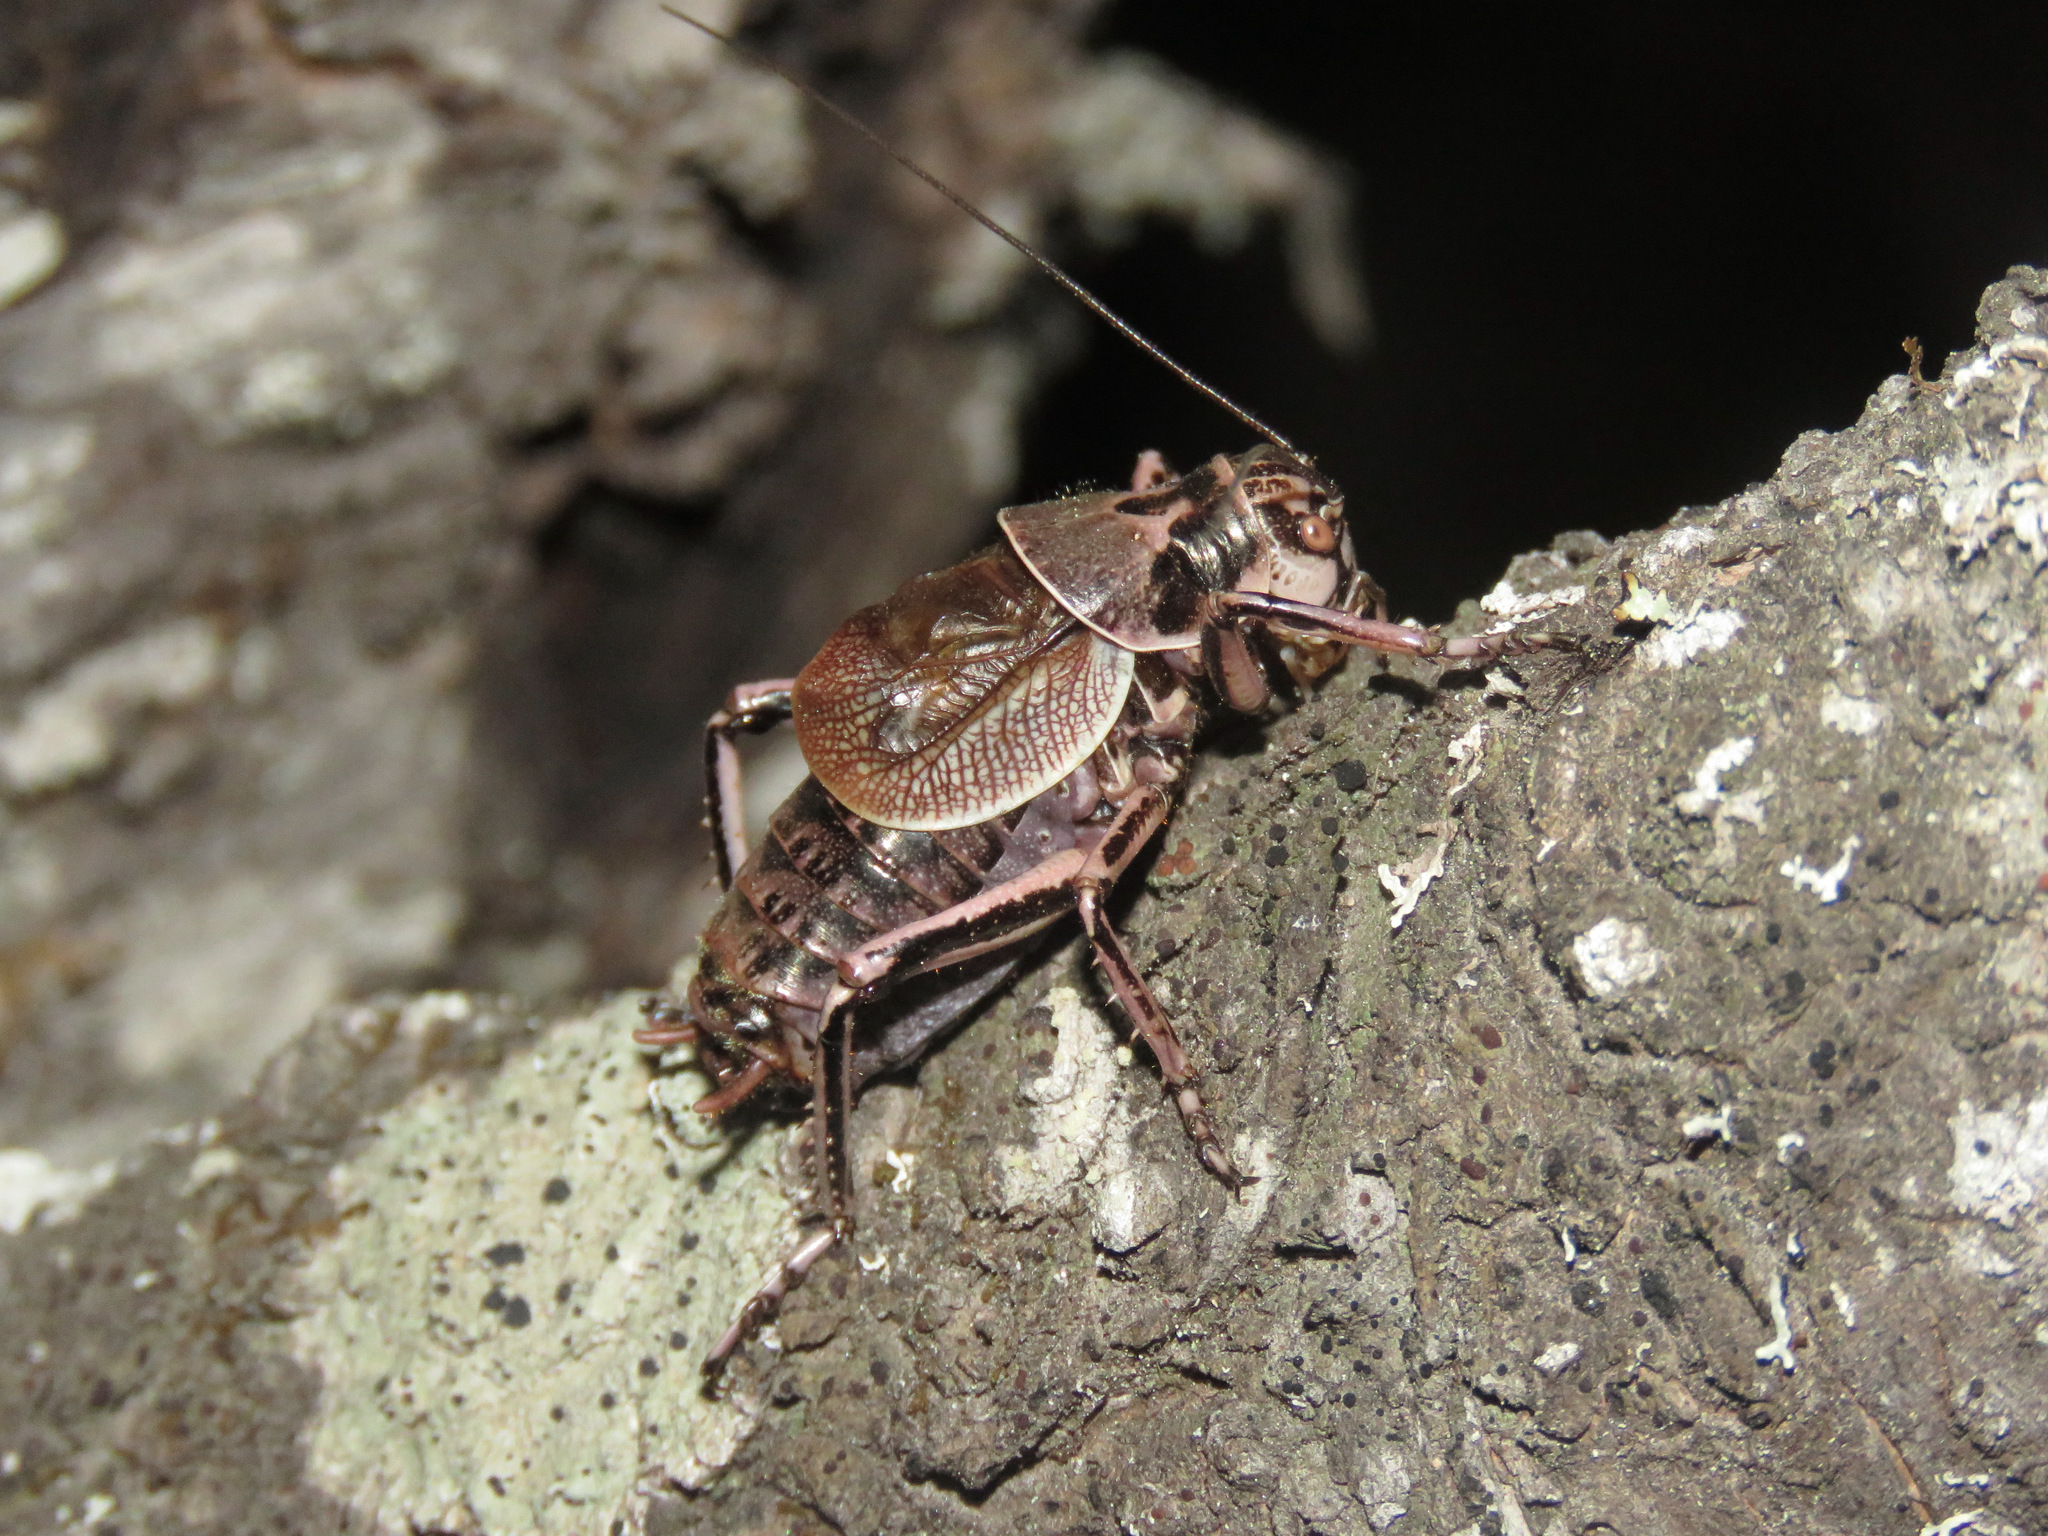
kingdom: Animalia
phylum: Arthropoda
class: Insecta
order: Orthoptera
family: Prophalangopsidae
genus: Cyphoderris
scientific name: Cyphoderris monstrosa
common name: Great grig
